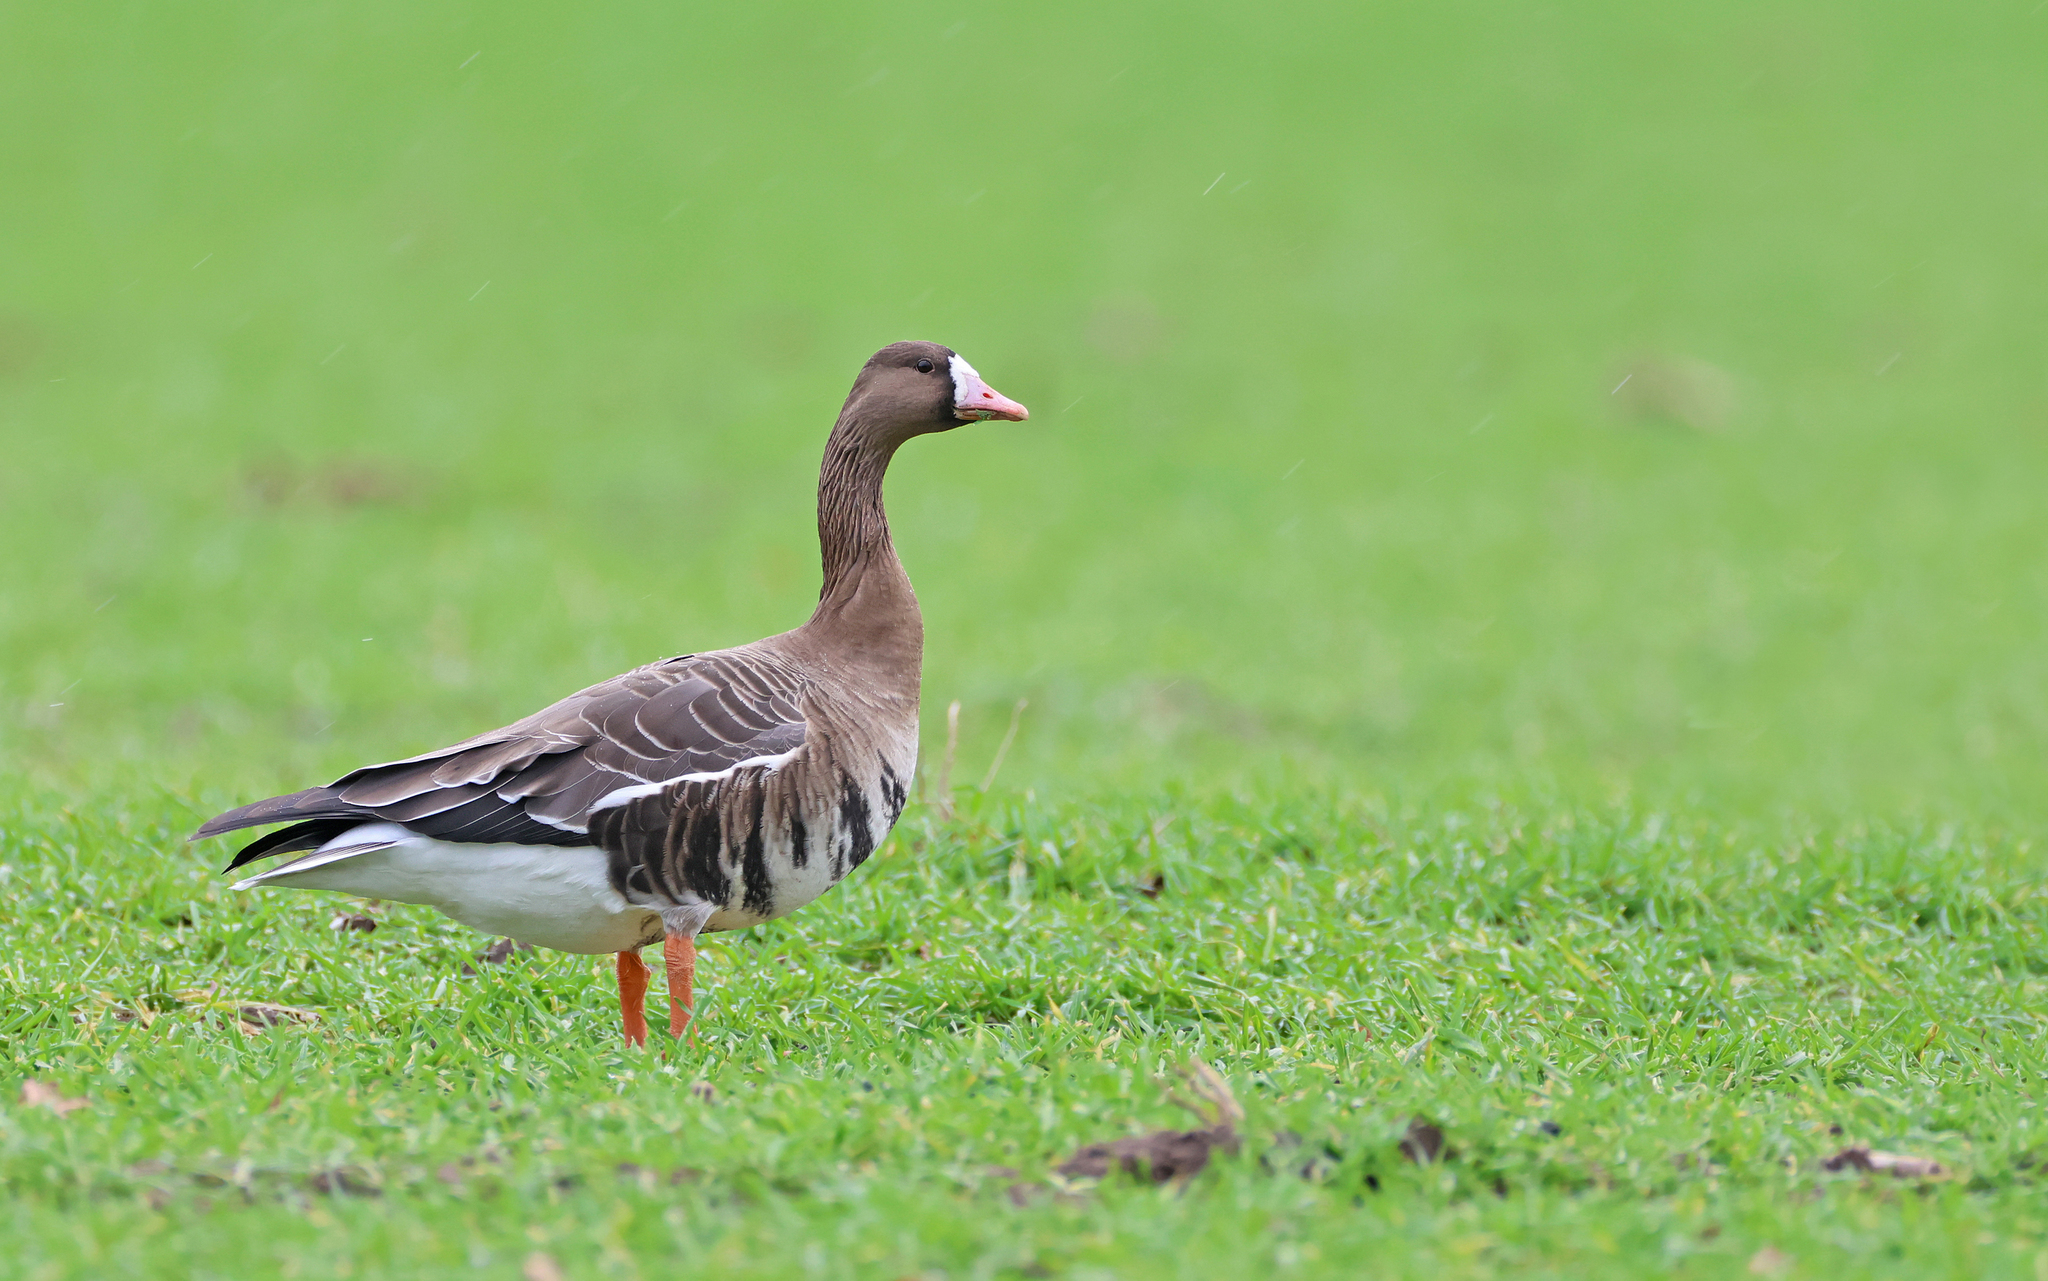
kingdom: Animalia
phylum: Chordata
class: Aves
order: Anseriformes
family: Anatidae
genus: Anser
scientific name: Anser albifrons
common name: Greater white-fronted goose
